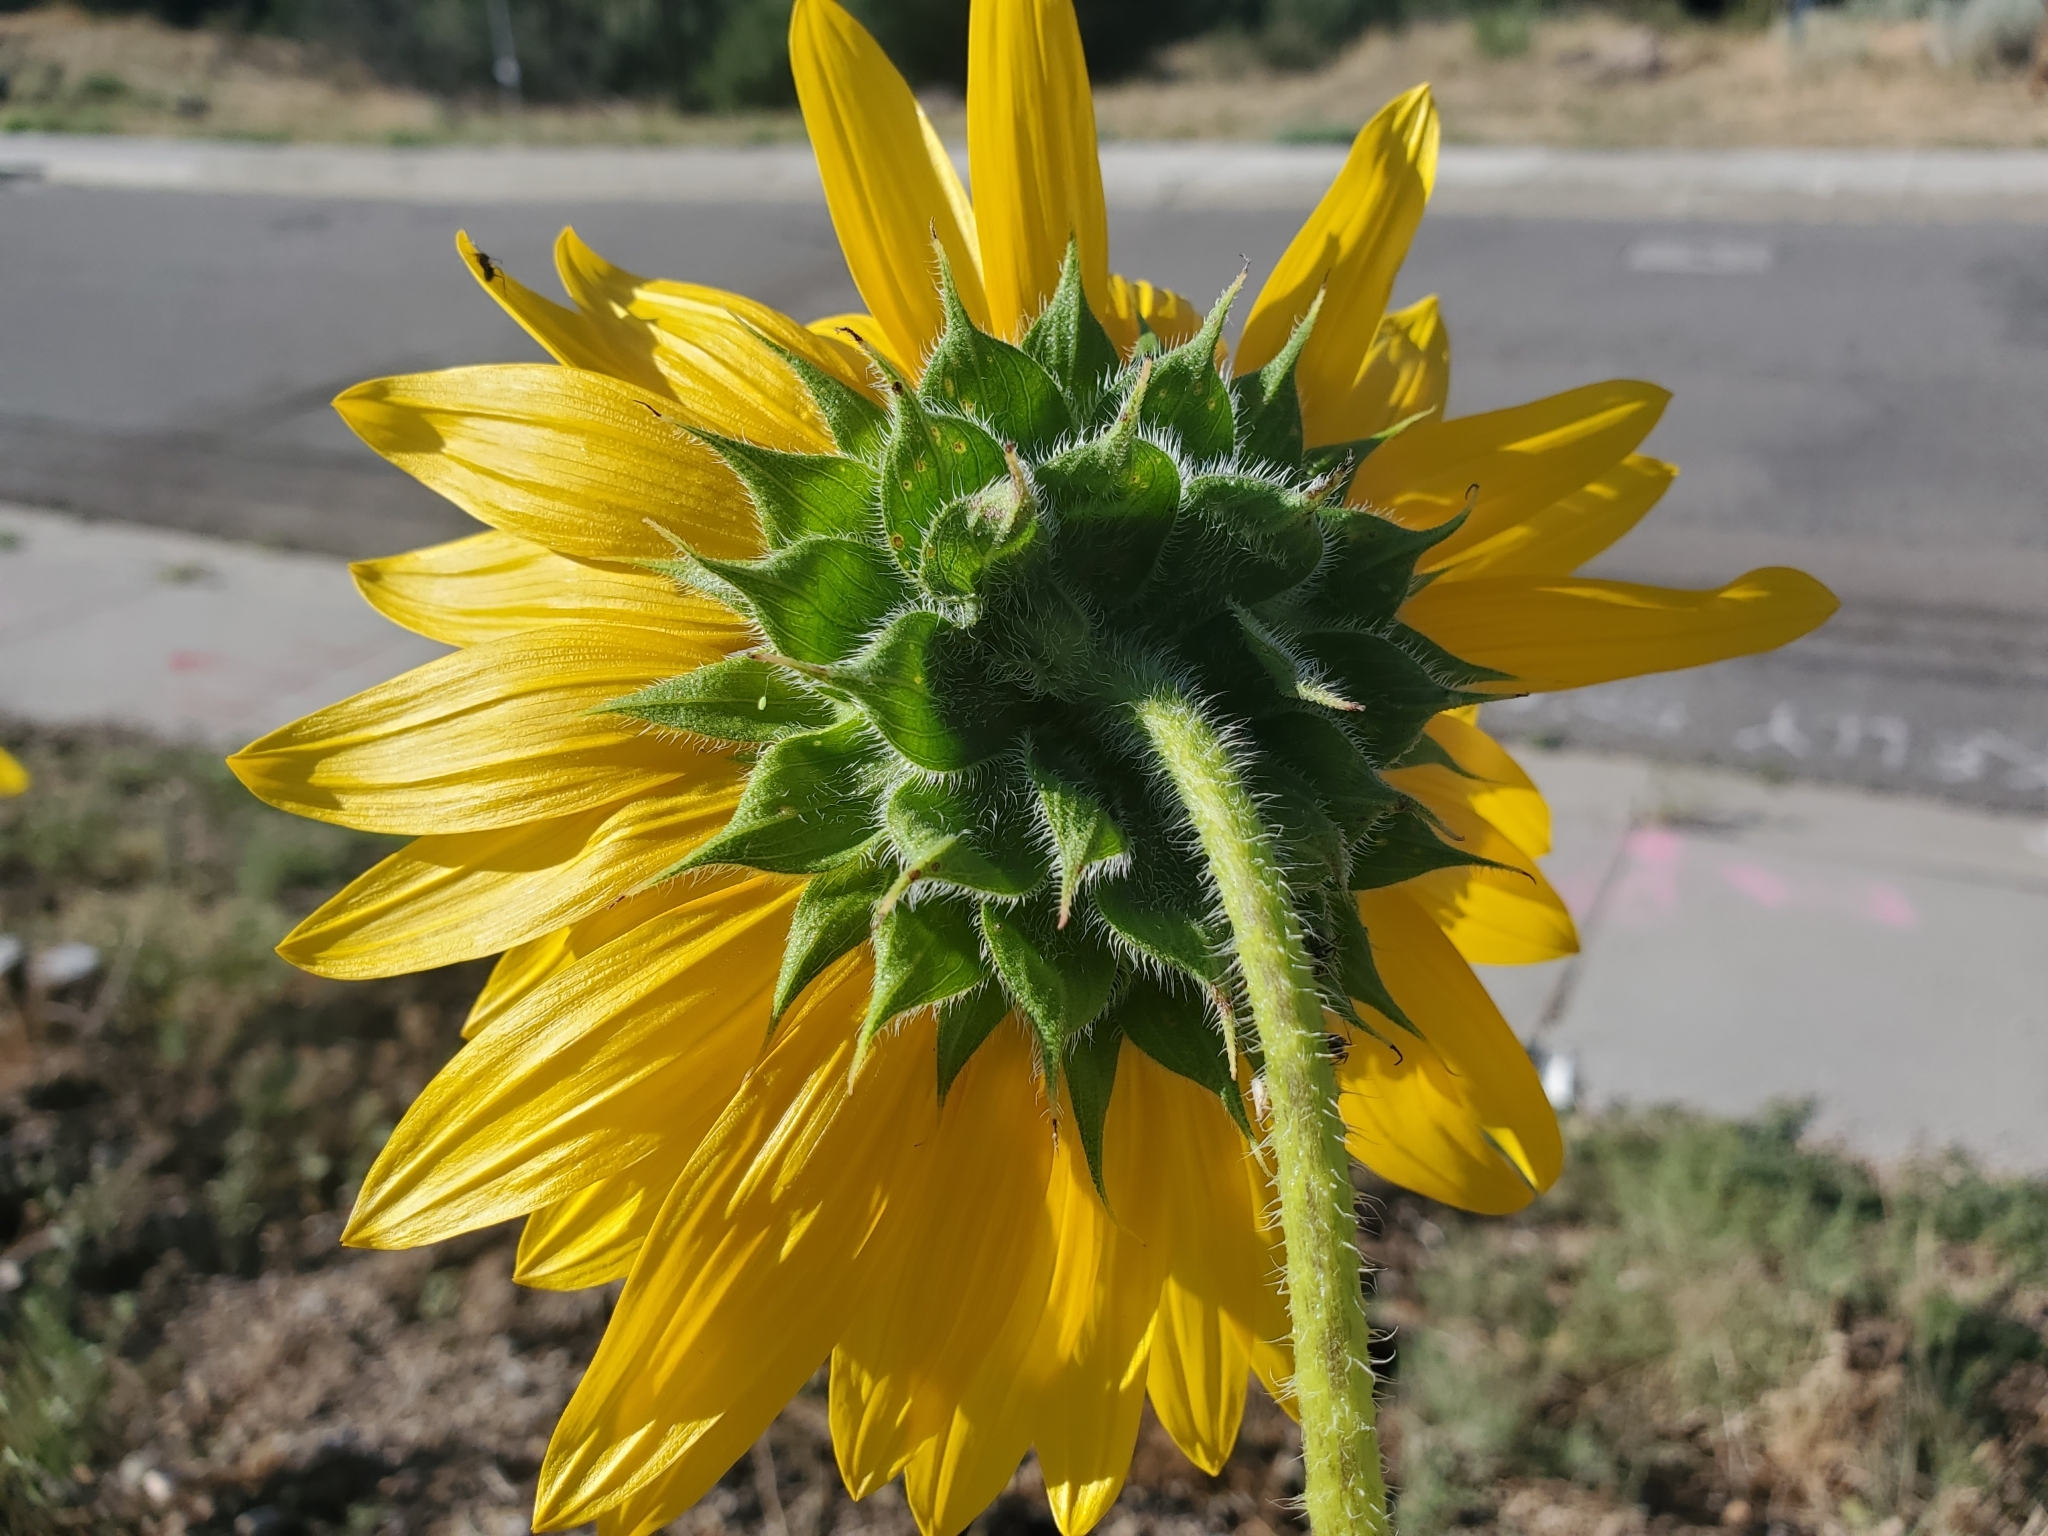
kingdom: Plantae
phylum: Tracheophyta
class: Magnoliopsida
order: Asterales
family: Asteraceae
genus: Helianthus
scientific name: Helianthus annuus
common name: Sunflower
